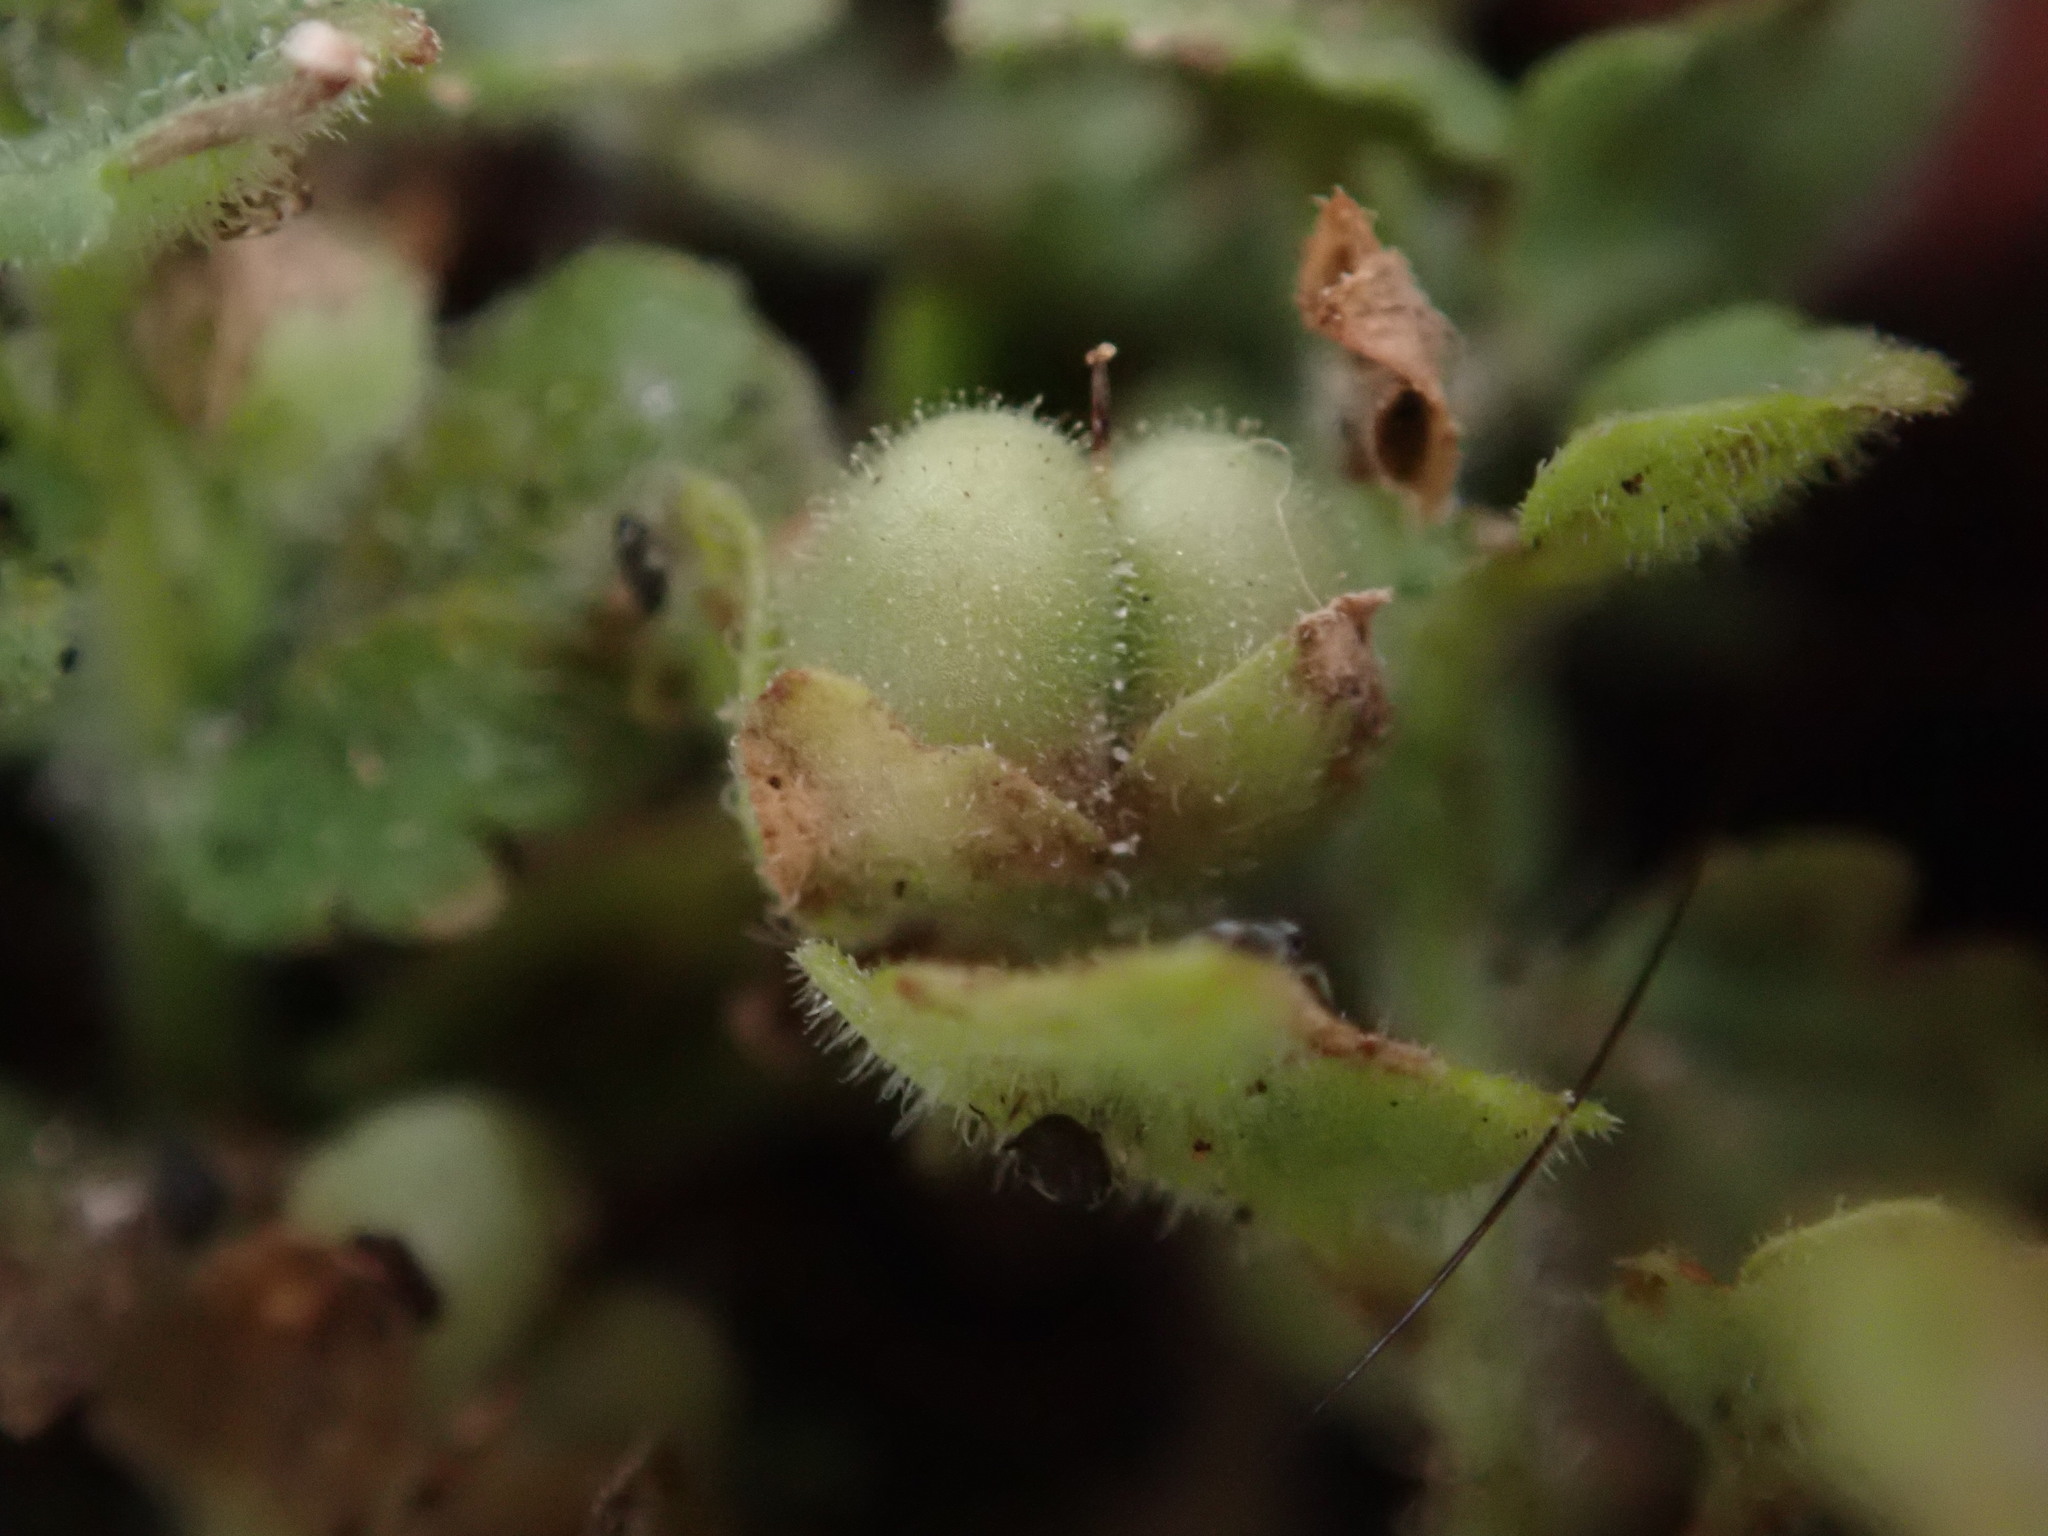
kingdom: Plantae
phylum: Tracheophyta
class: Magnoliopsida
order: Lamiales
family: Plantaginaceae
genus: Veronica
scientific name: Veronica polita
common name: Grey field-speedwell
